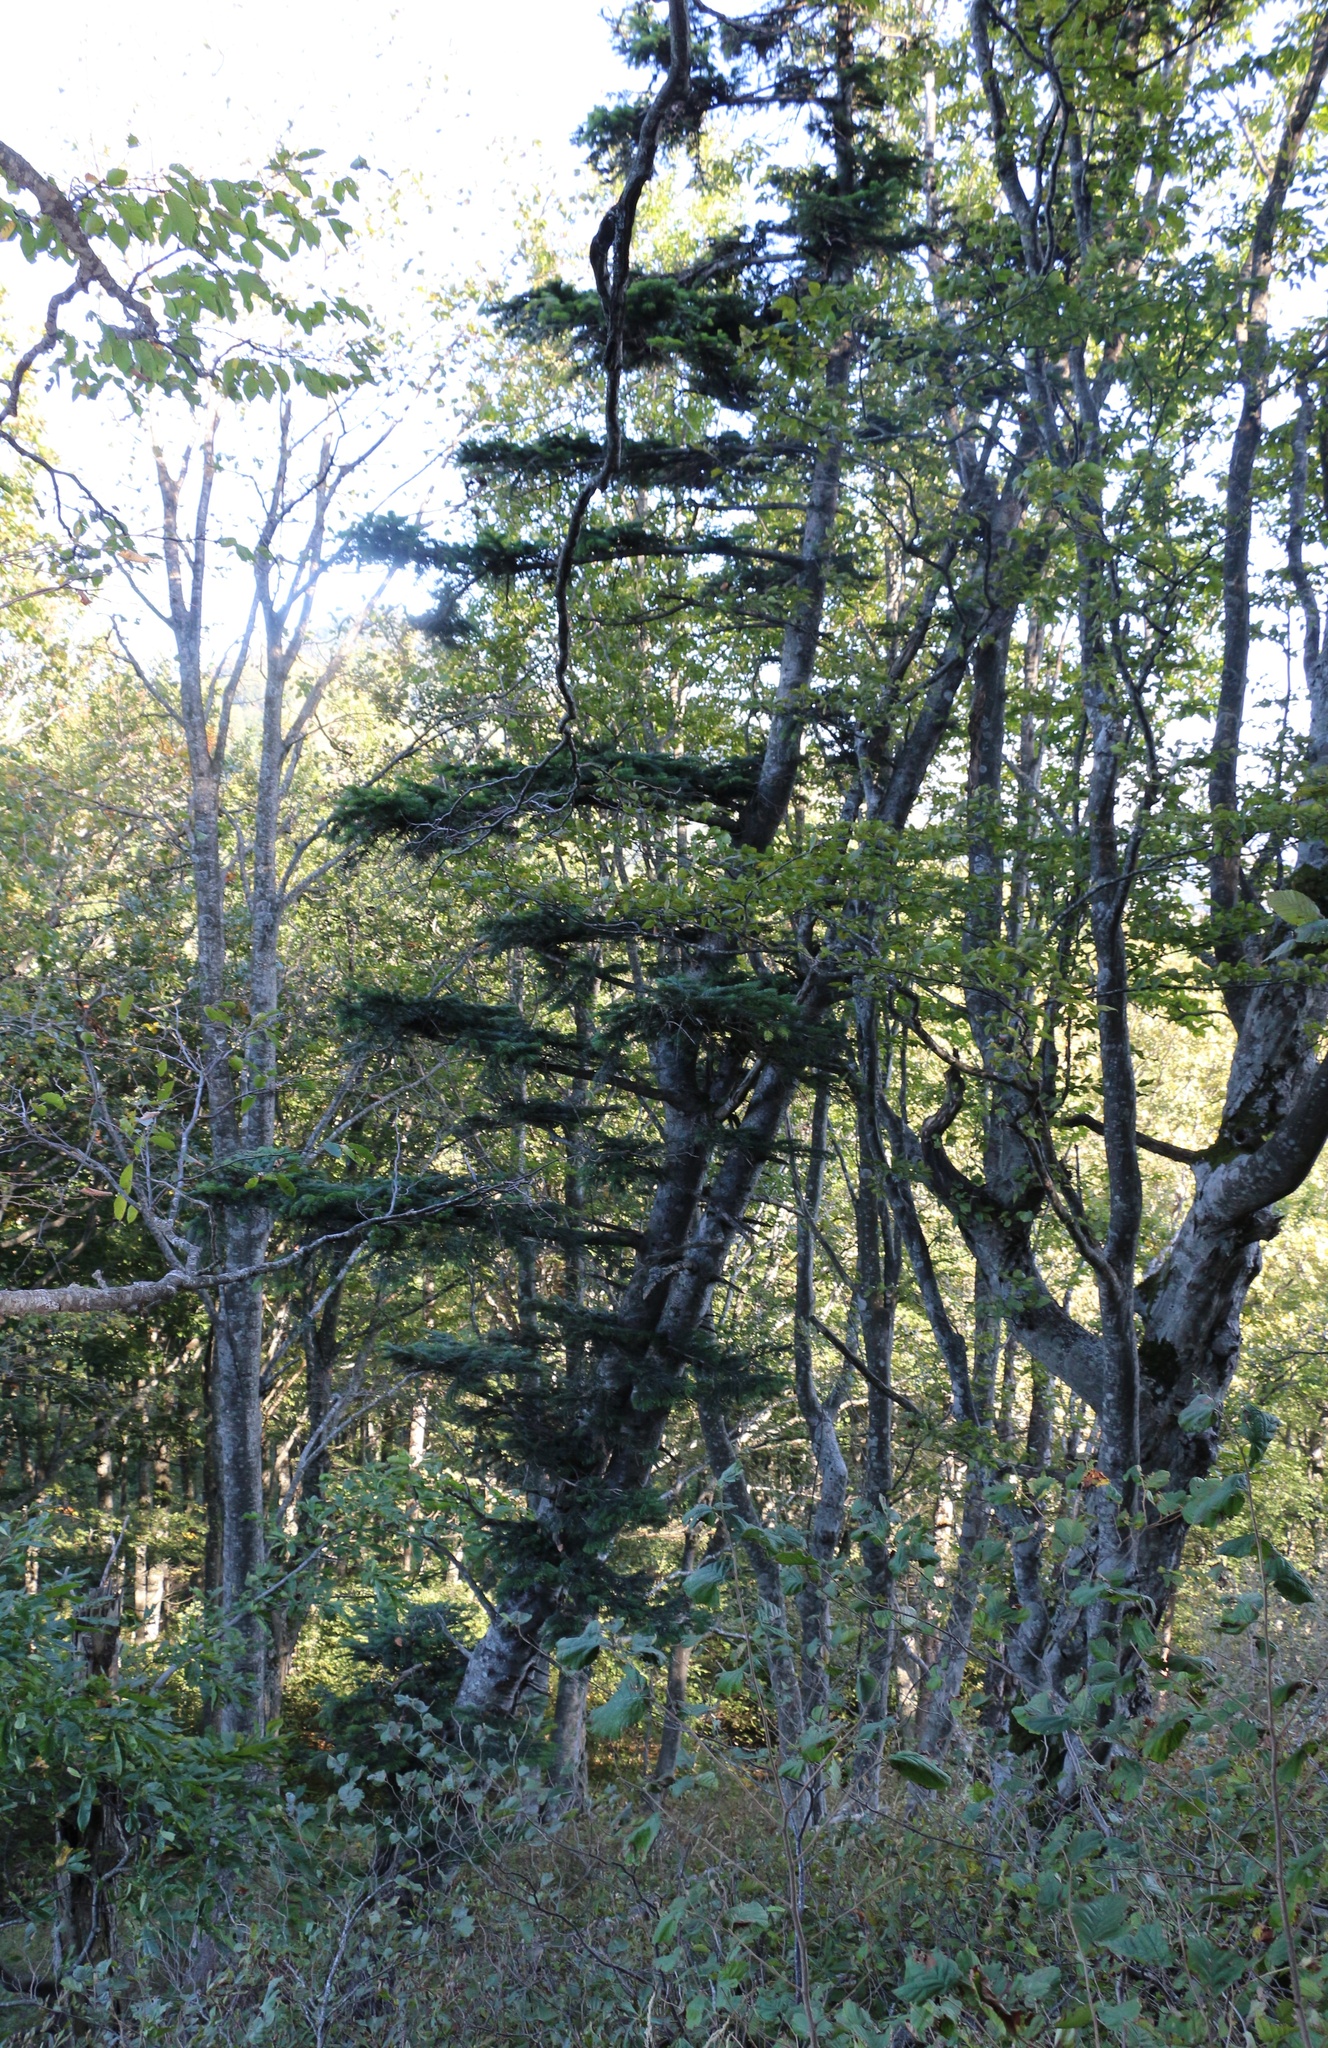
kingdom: Plantae
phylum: Tracheophyta
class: Pinopsida
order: Pinales
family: Pinaceae
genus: Abies
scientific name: Abies nordmanniana
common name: Caucasian fir
